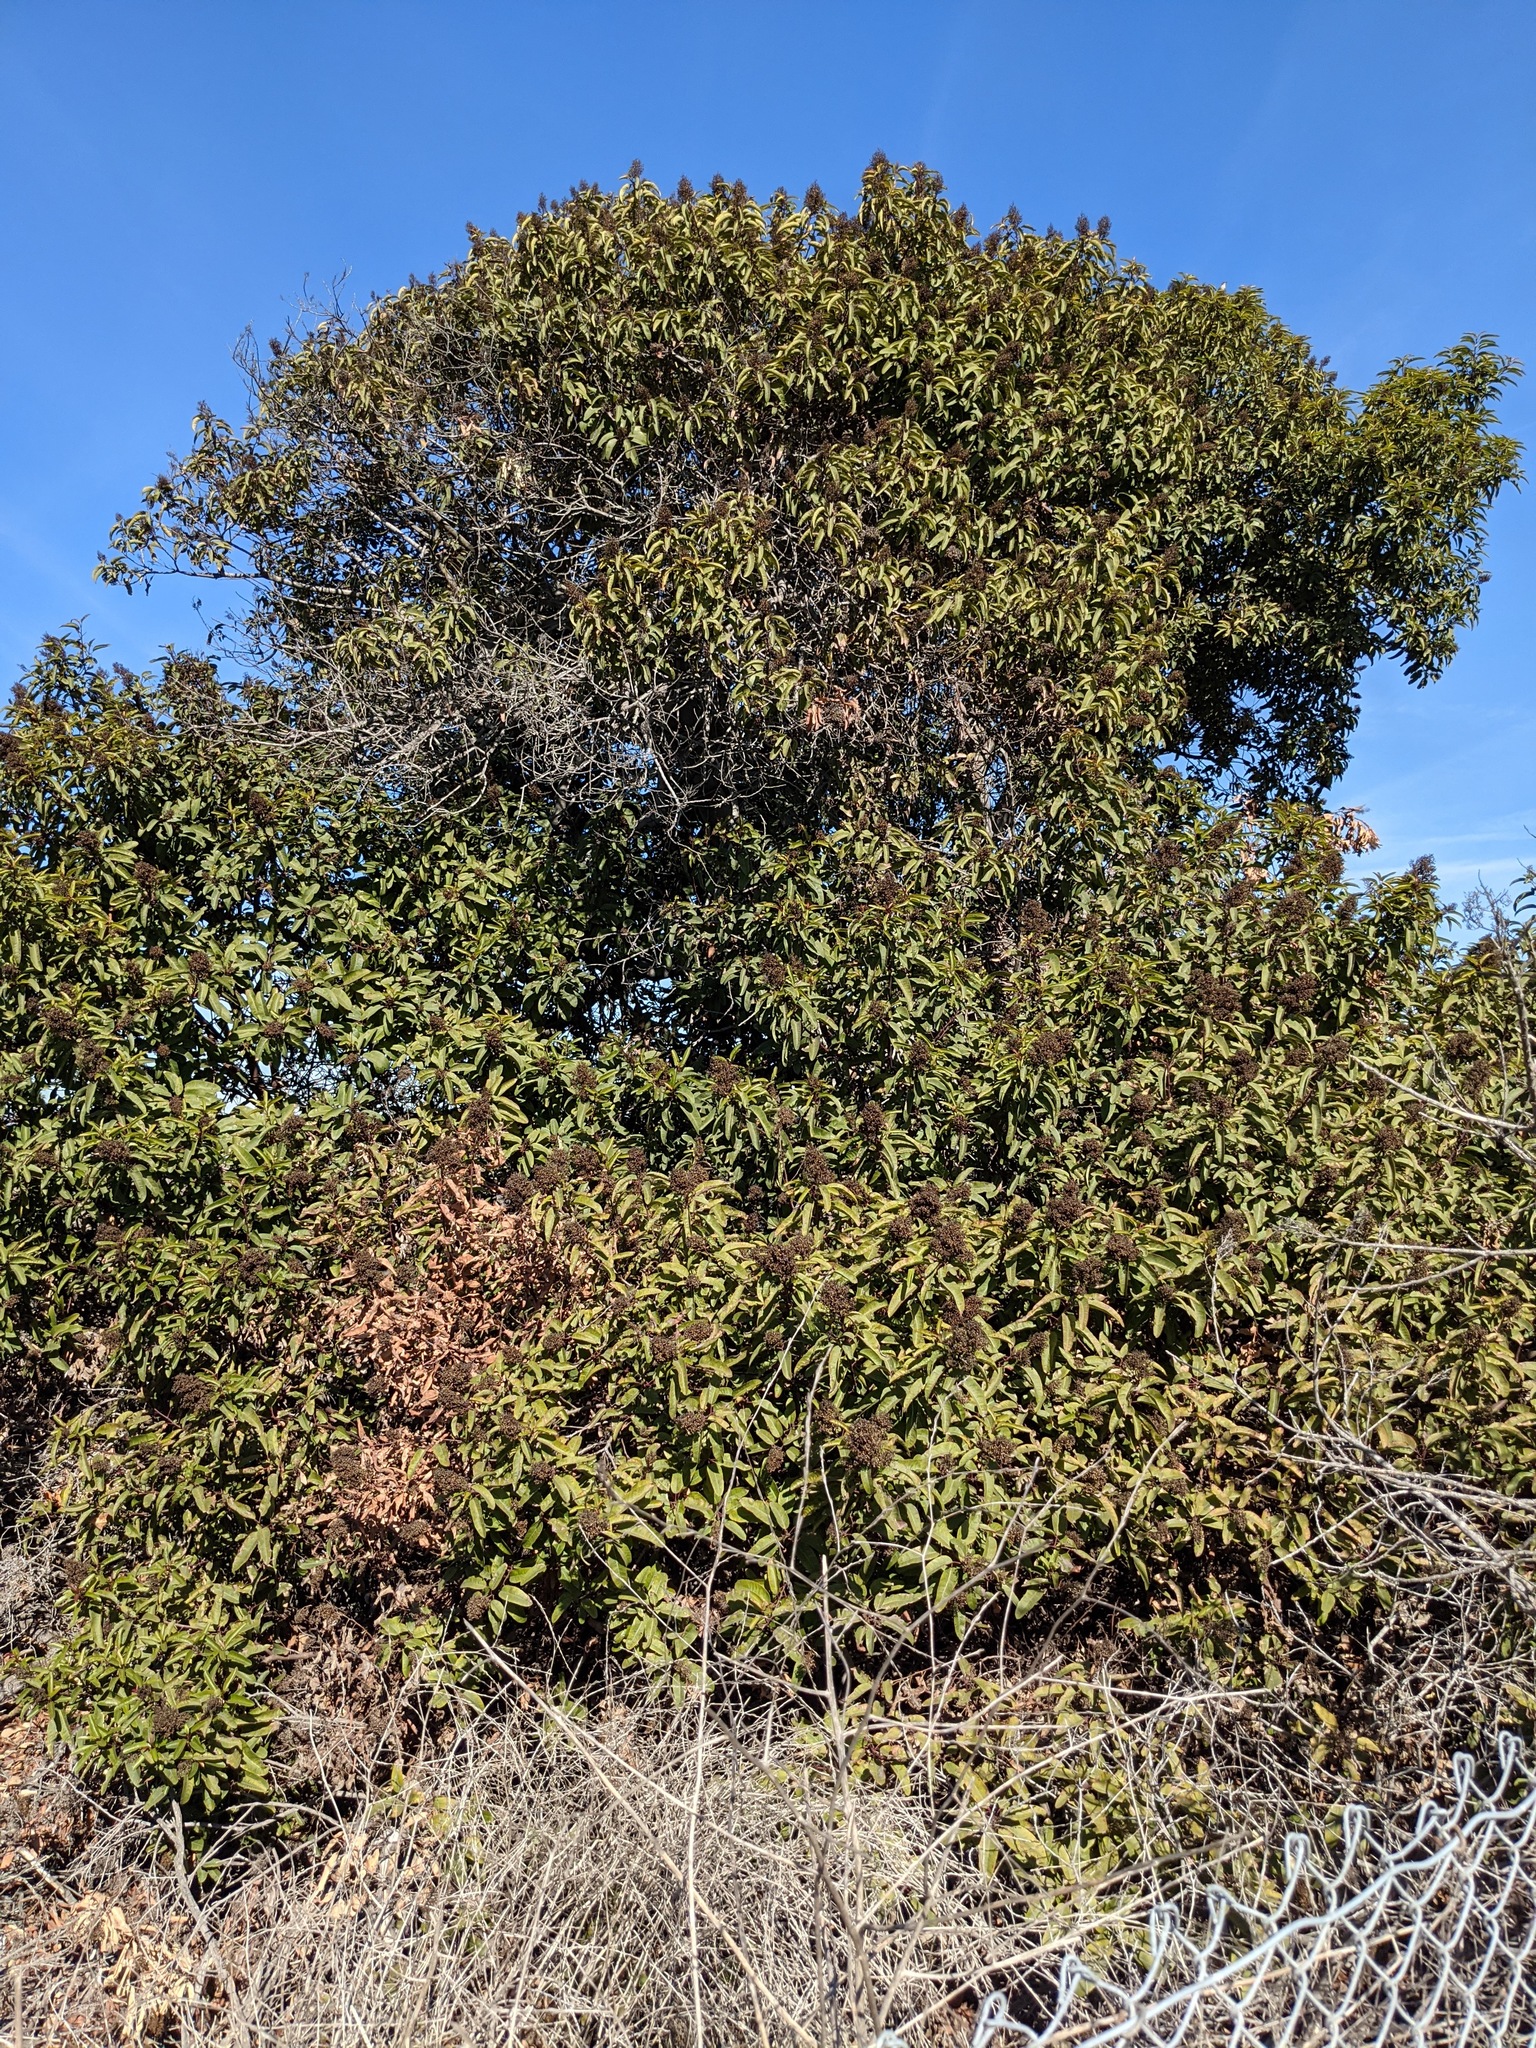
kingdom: Plantae
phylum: Tracheophyta
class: Magnoliopsida
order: Sapindales
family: Anacardiaceae
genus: Malosma
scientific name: Malosma laurina
